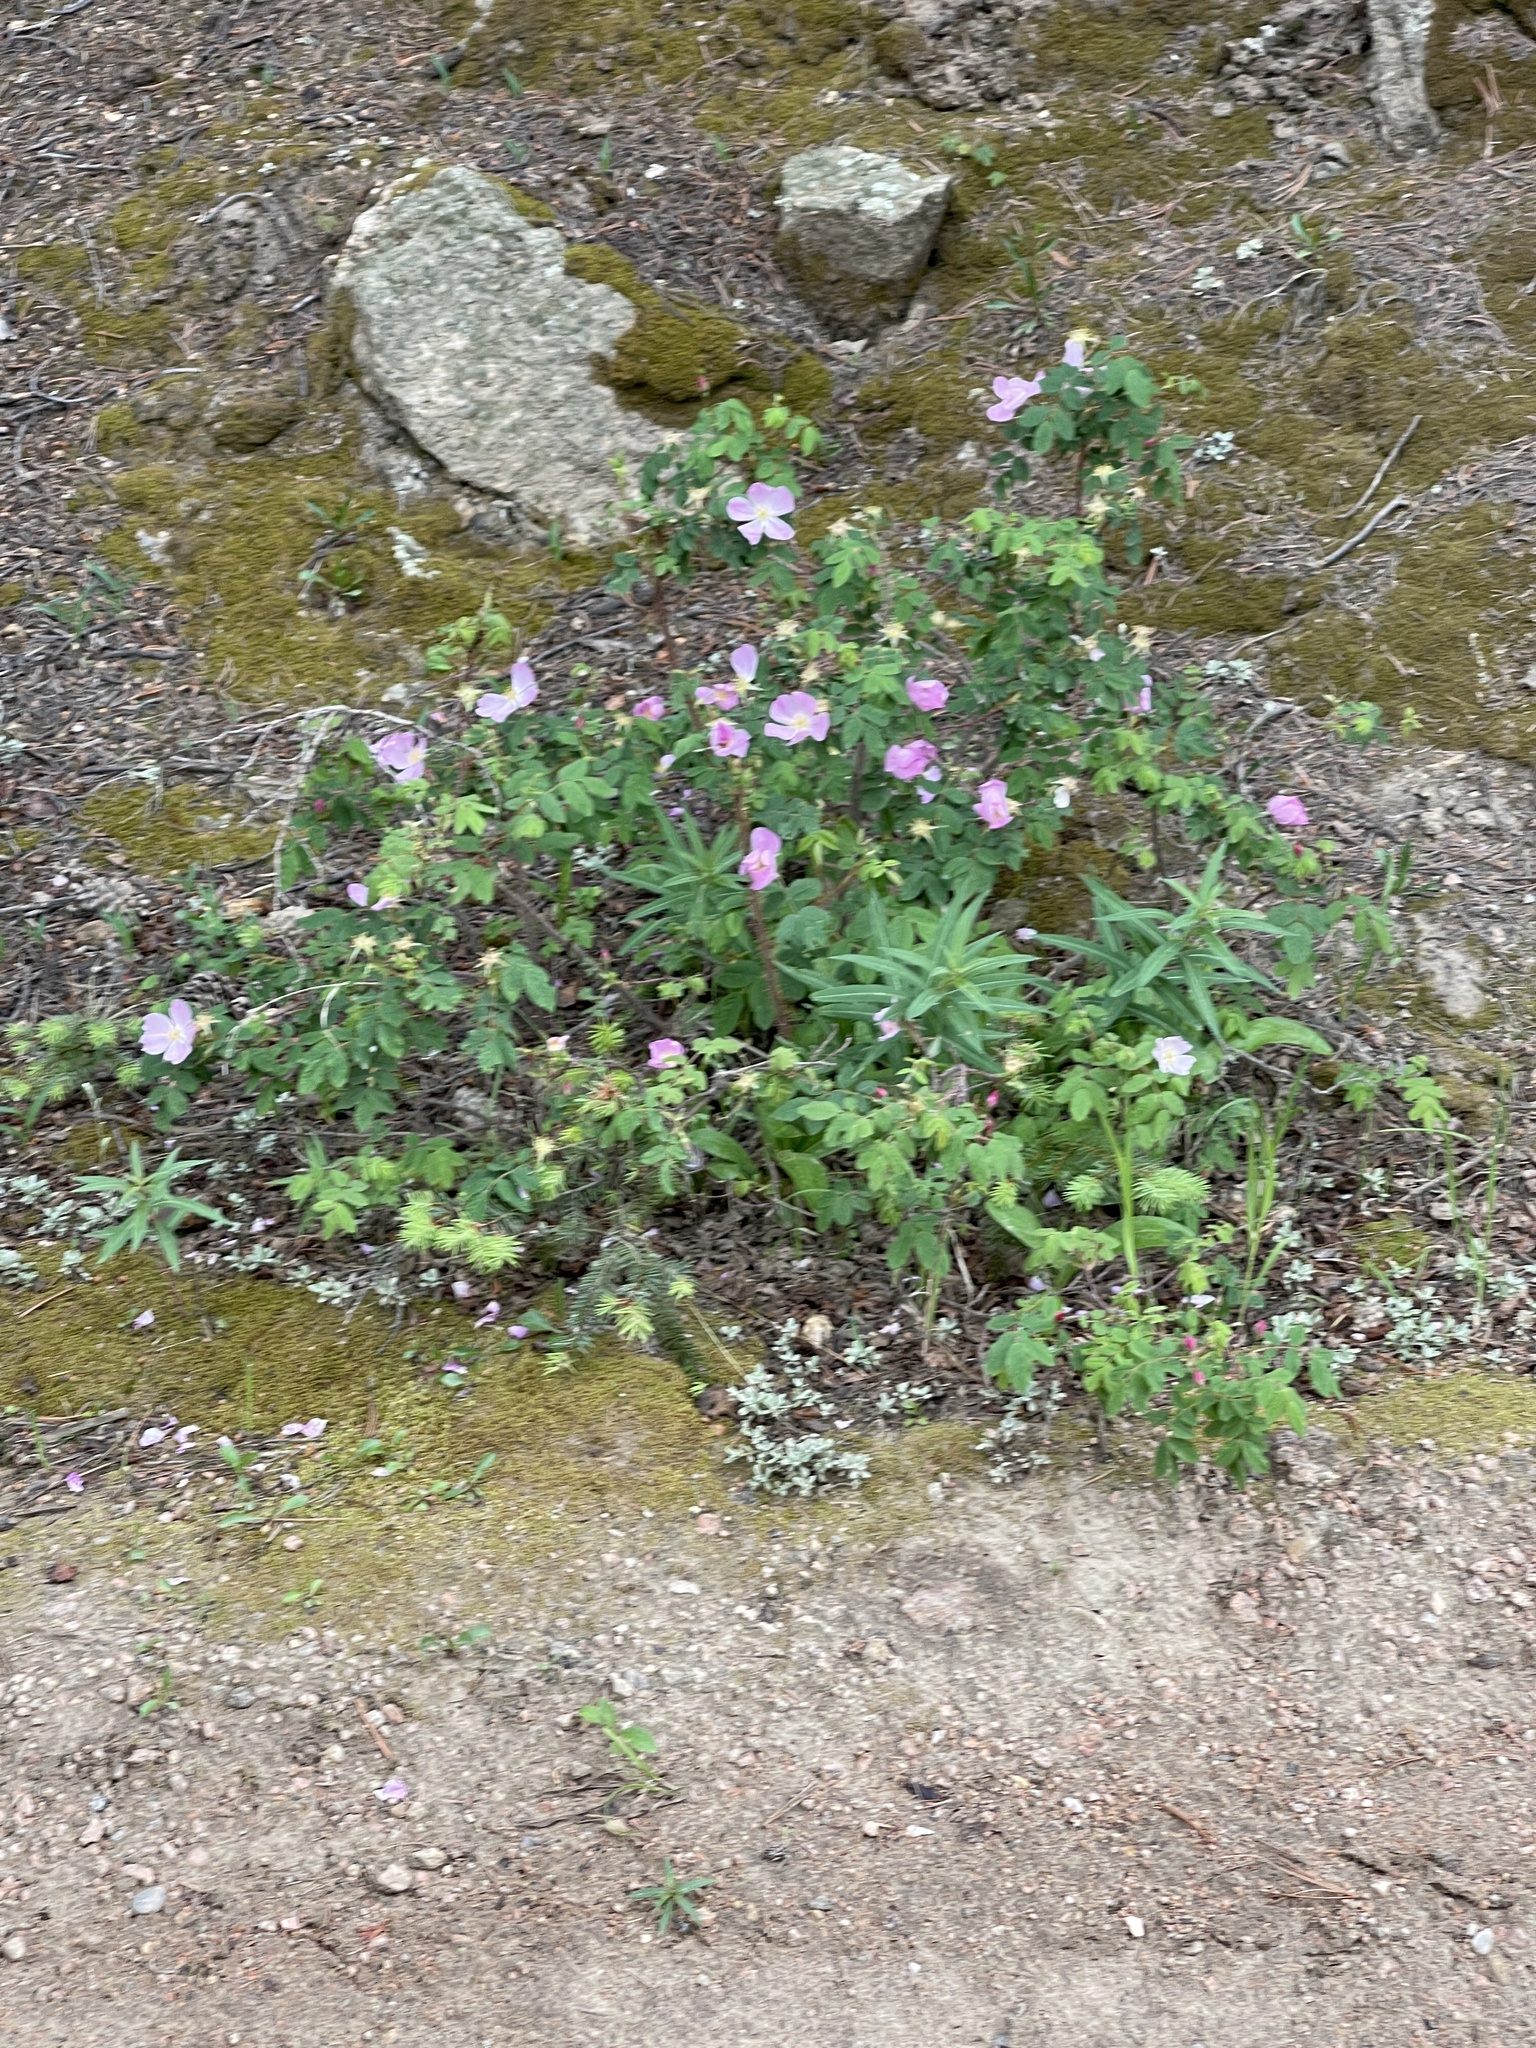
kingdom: Plantae
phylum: Tracheophyta
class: Magnoliopsida
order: Rosales
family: Rosaceae
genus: Rosa
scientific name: Rosa acicularis
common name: Prickly rose
